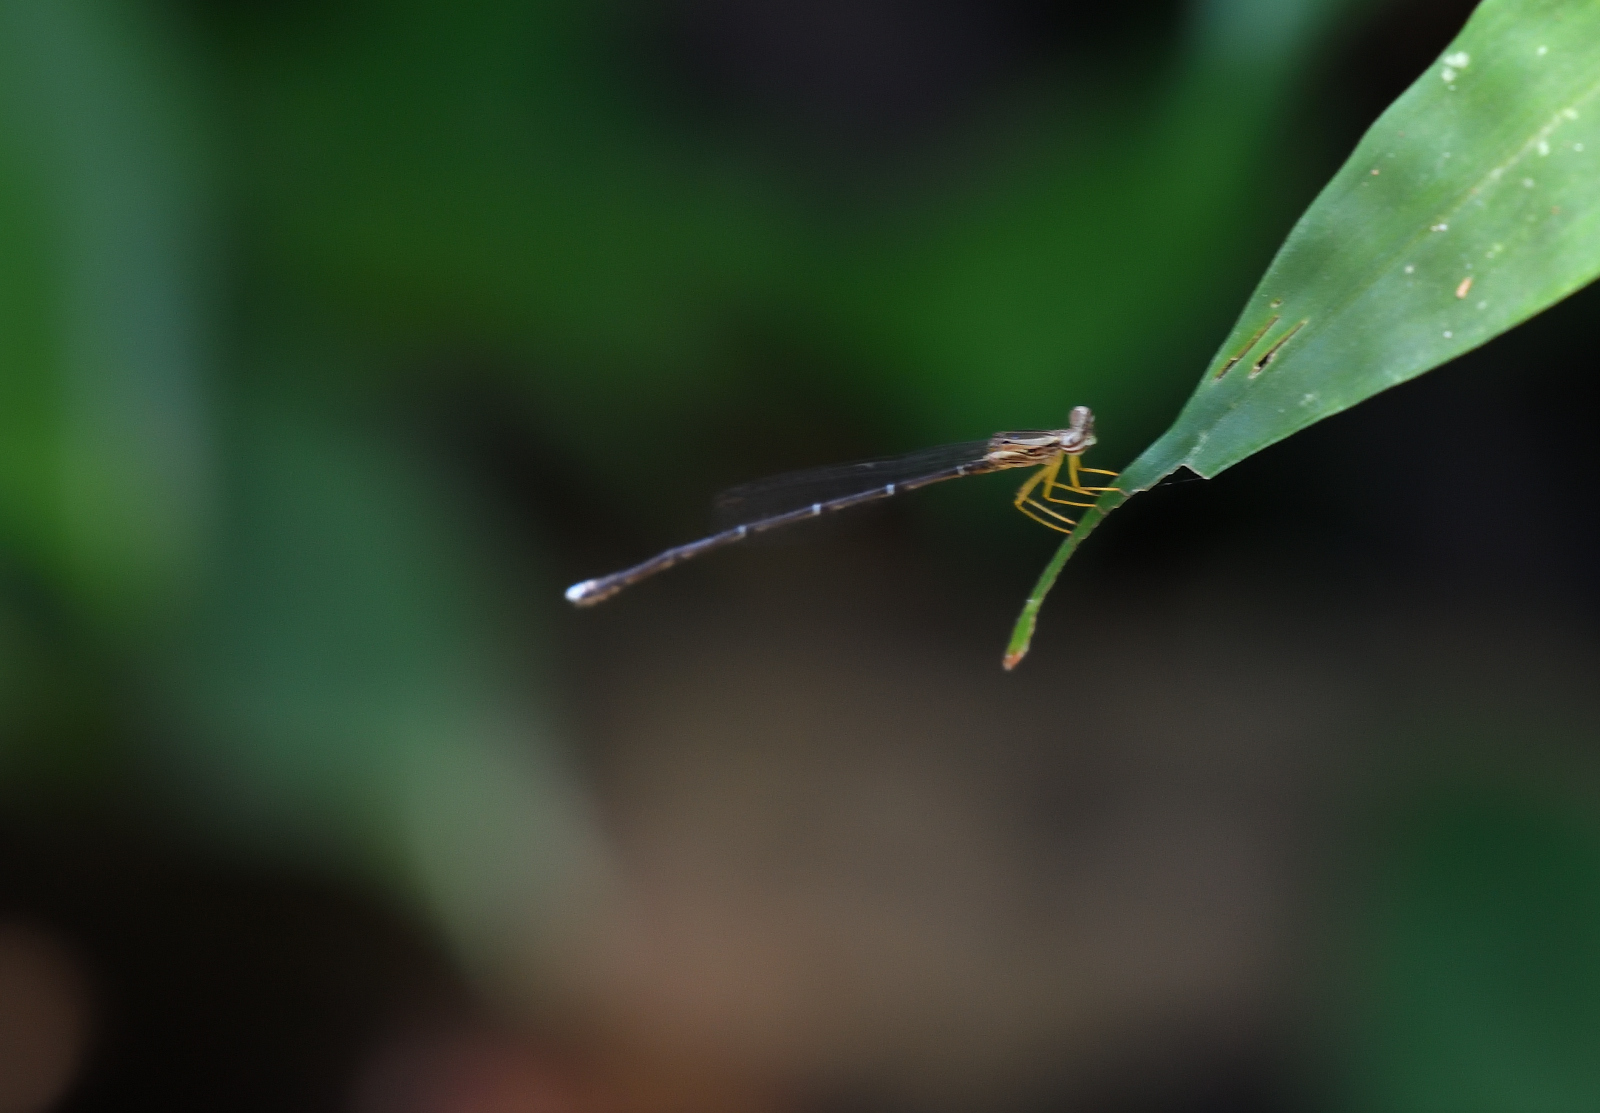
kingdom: Animalia
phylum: Arthropoda
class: Insecta
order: Odonata
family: Platycnemididae
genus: Copera
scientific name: Copera marginipes
